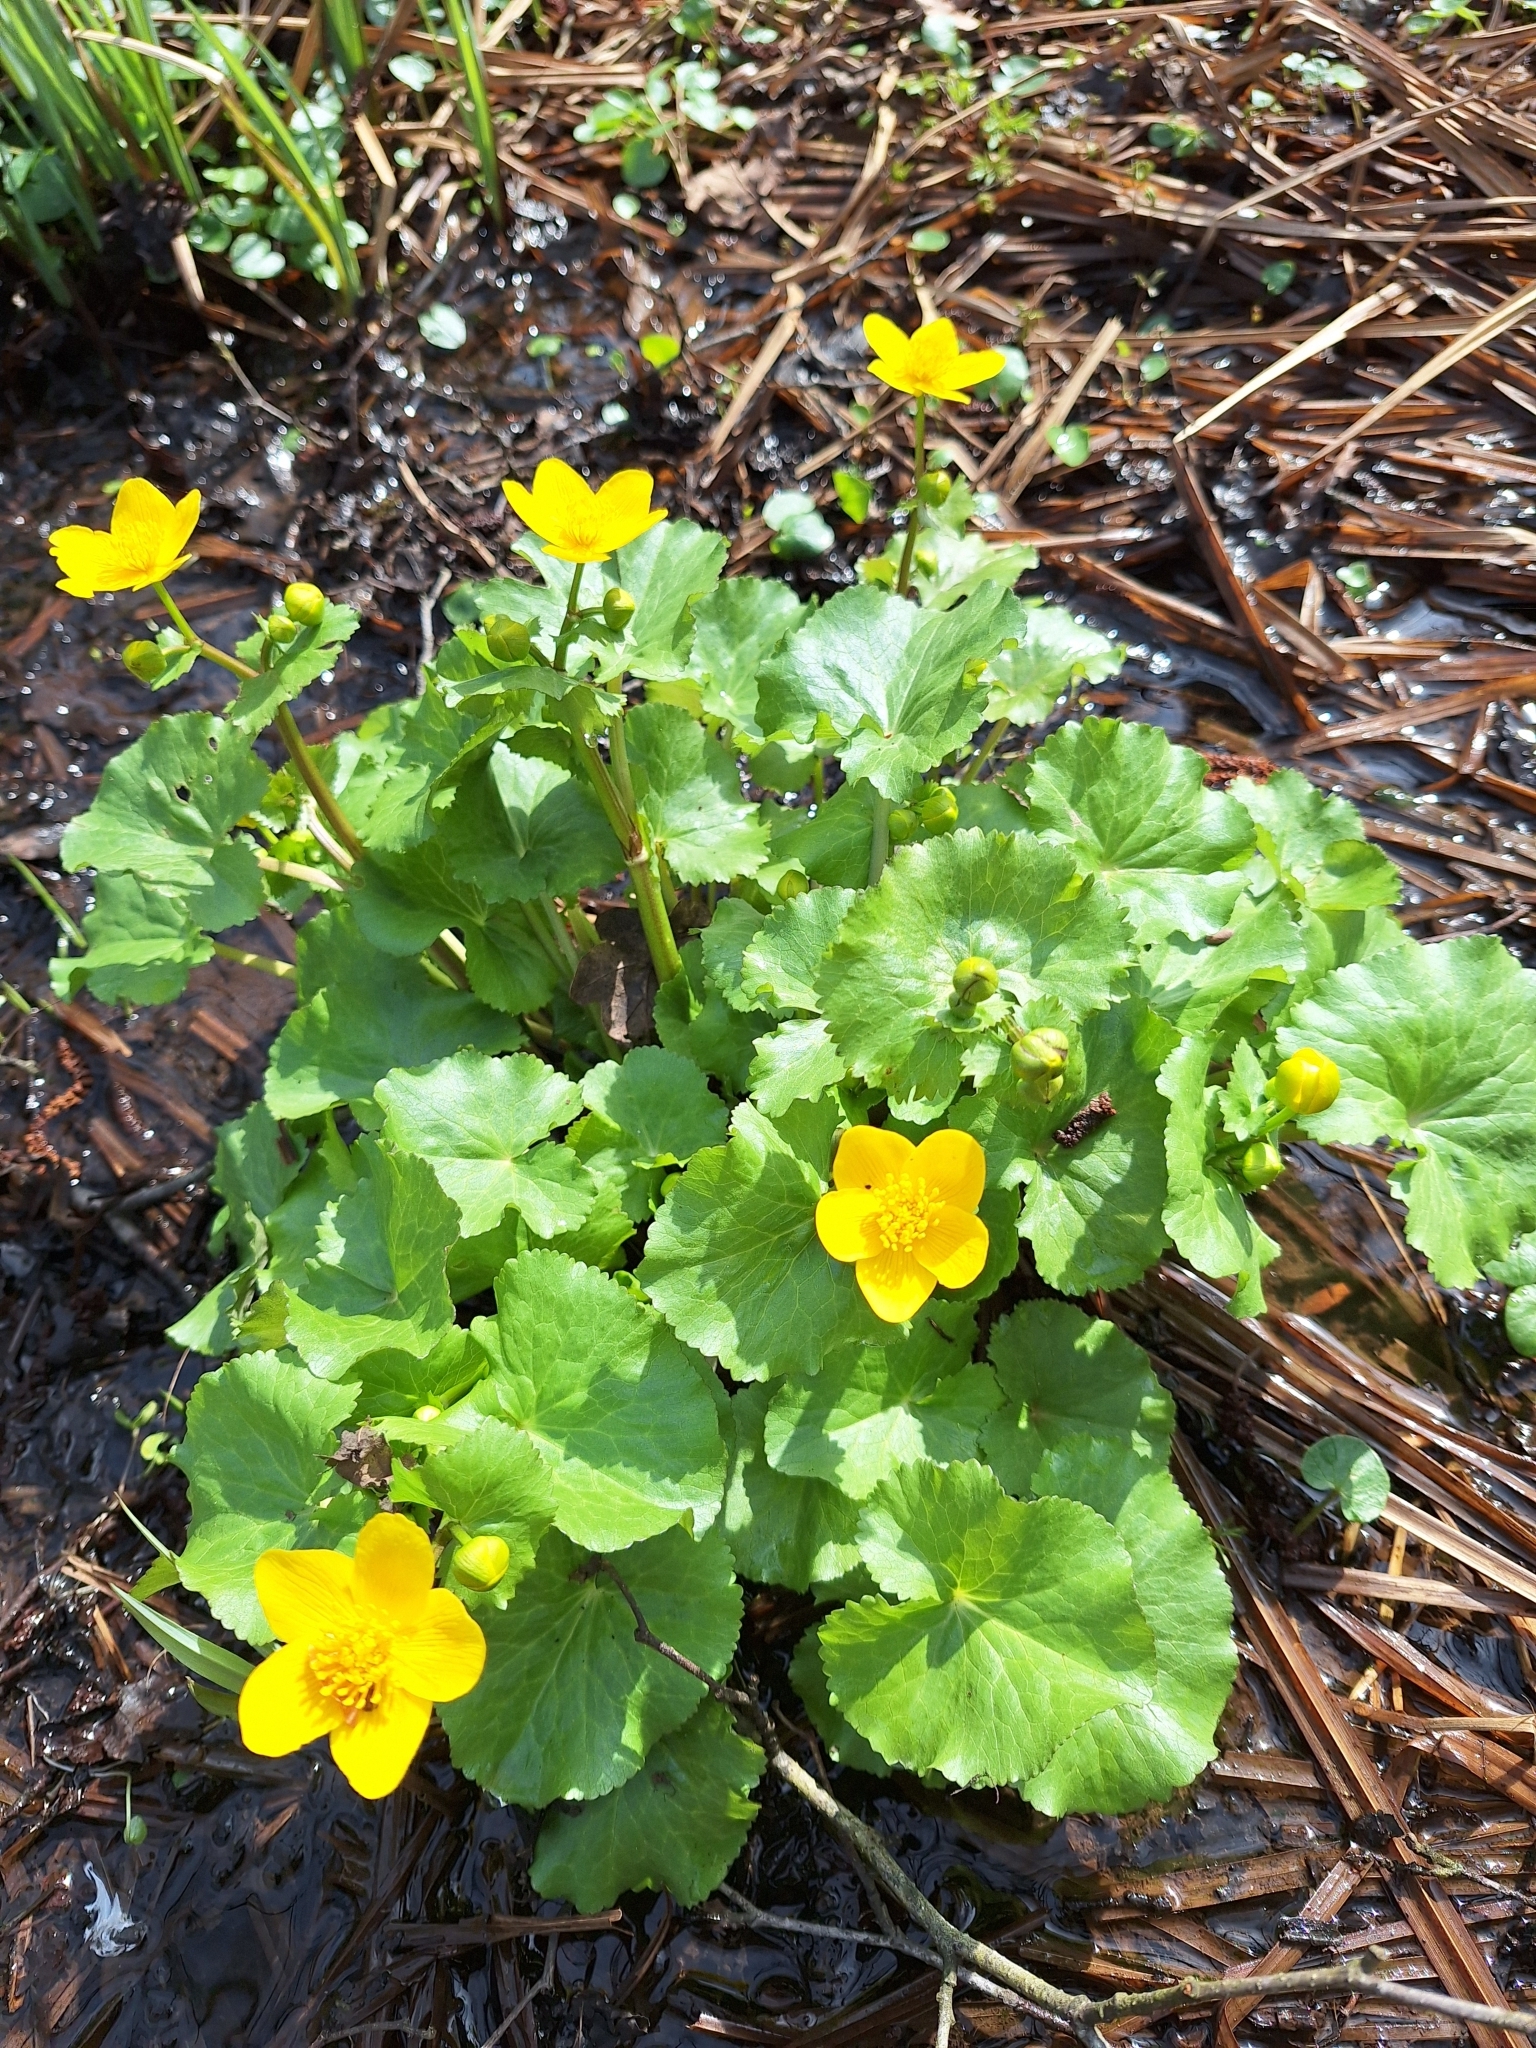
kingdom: Plantae
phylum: Tracheophyta
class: Magnoliopsida
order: Ranunculales
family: Ranunculaceae
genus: Caltha
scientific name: Caltha palustris
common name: Marsh marigold
